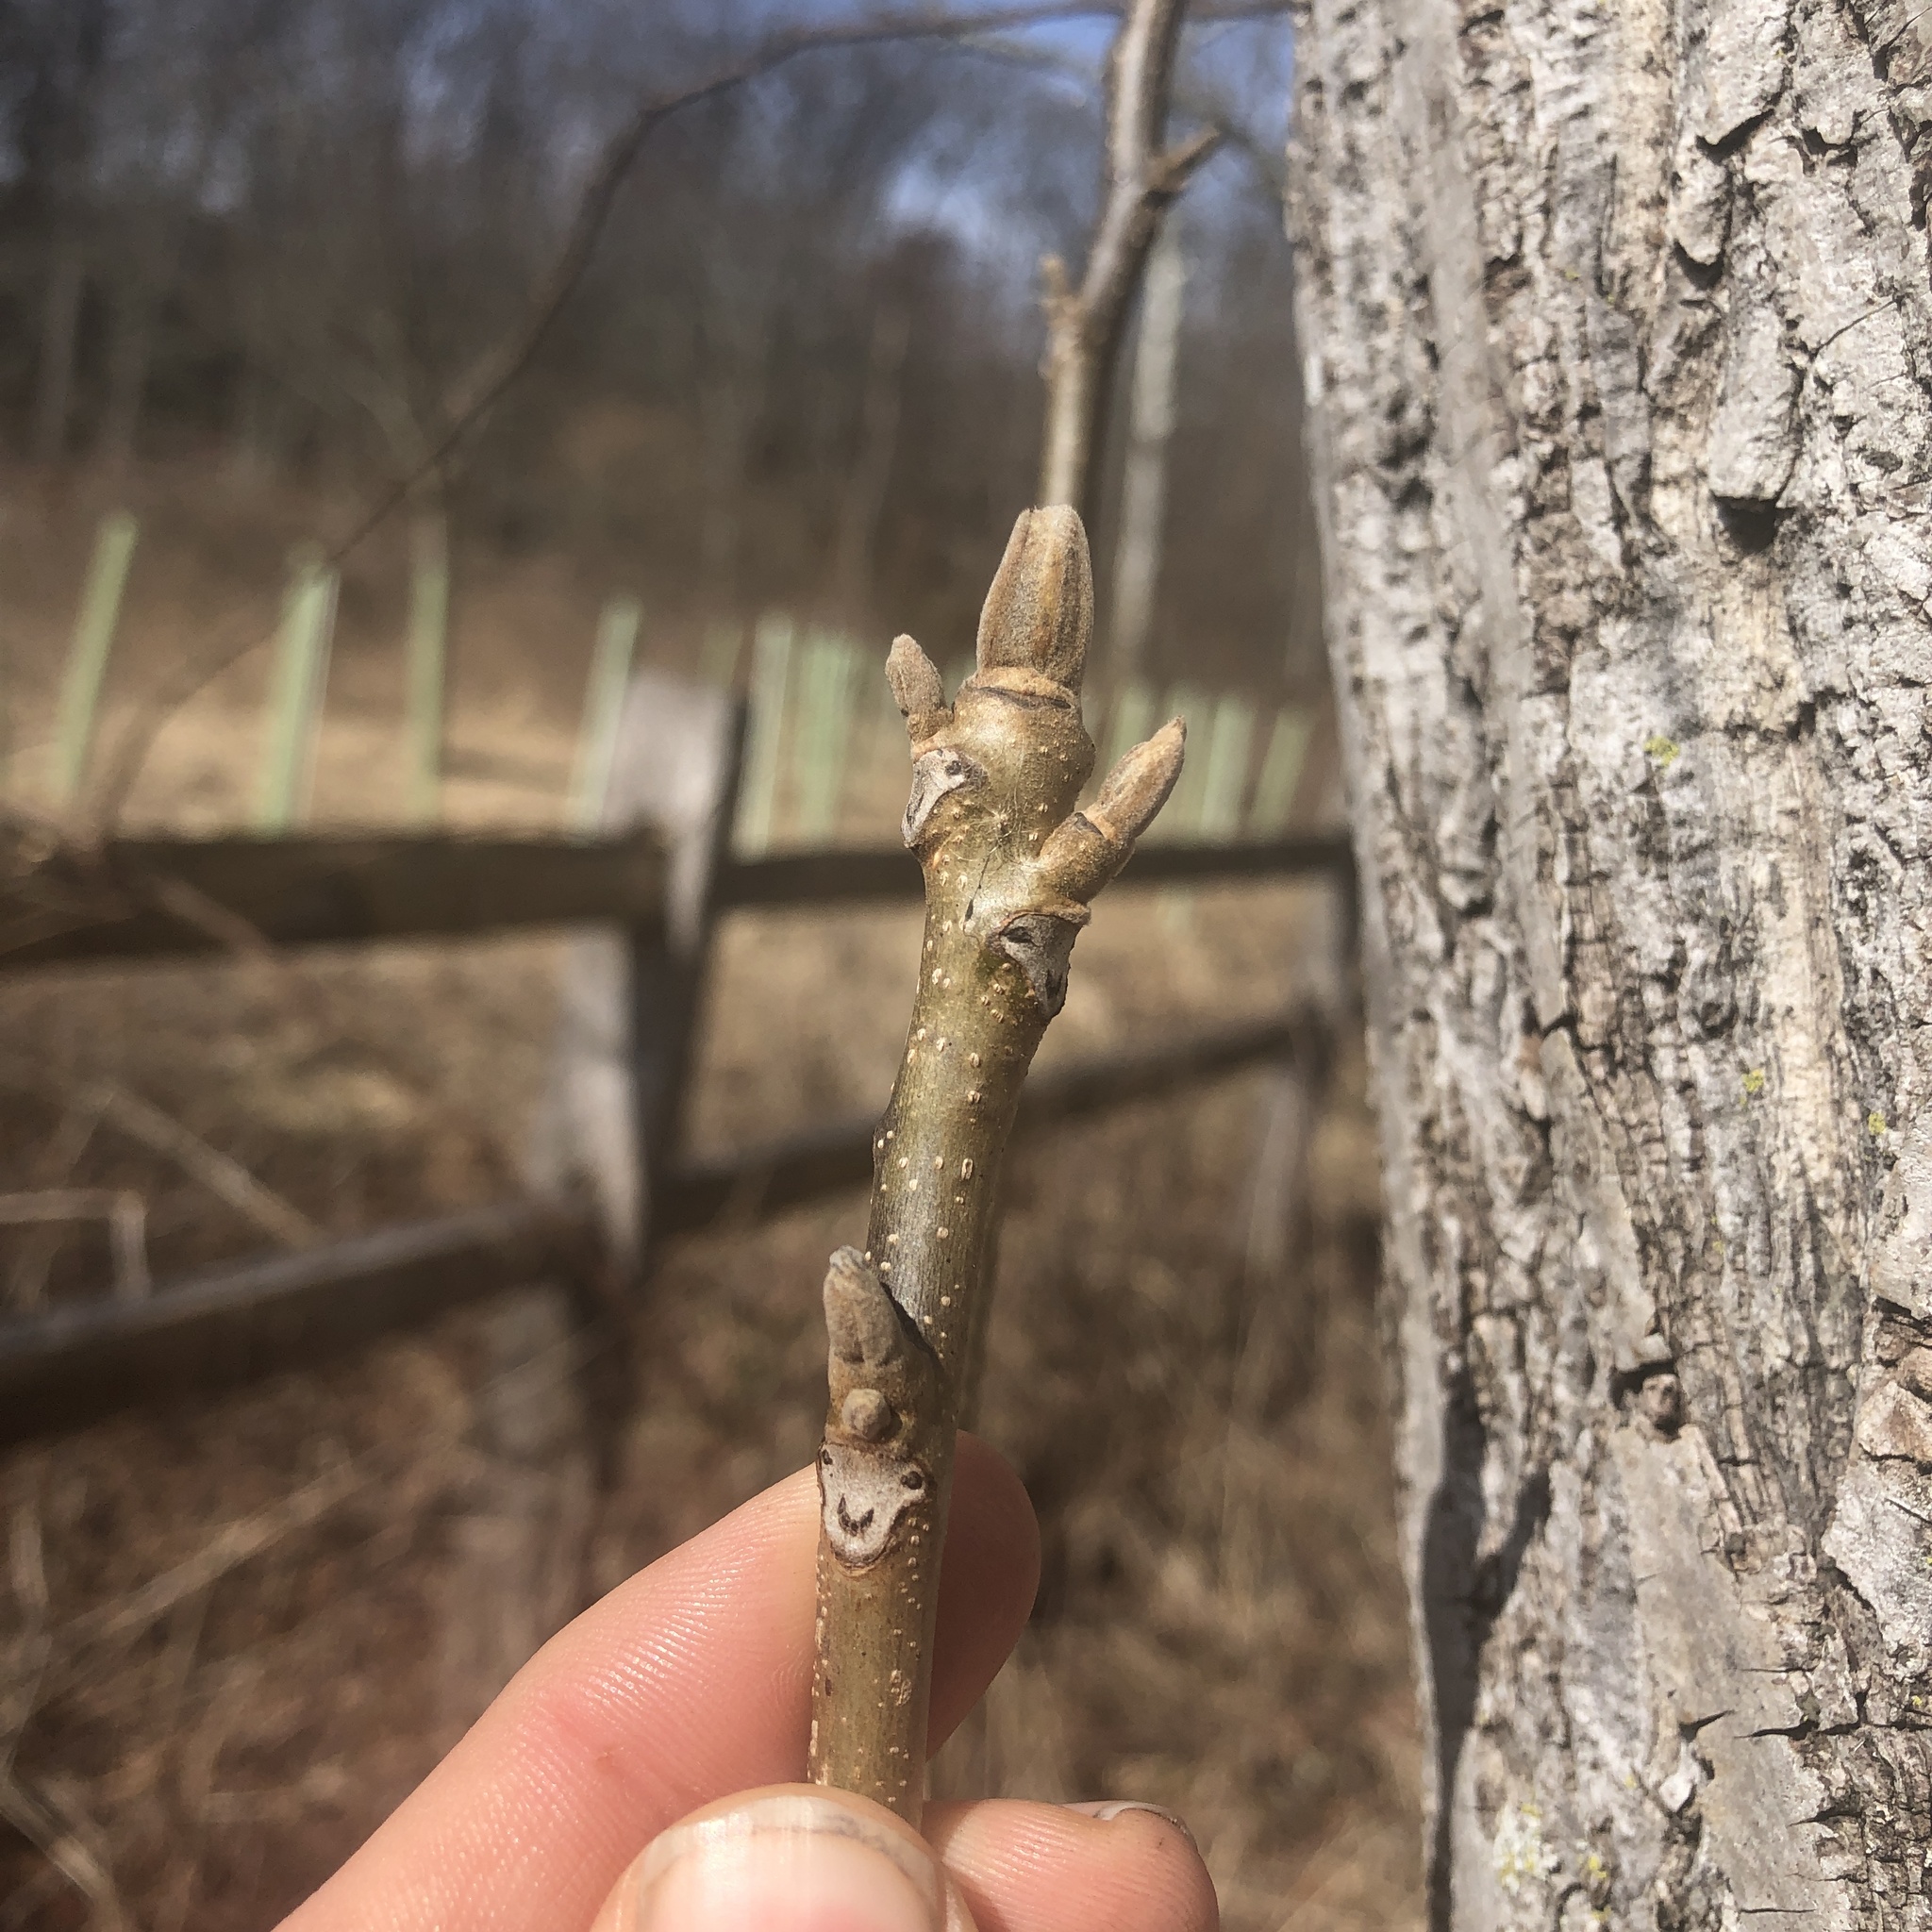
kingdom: Plantae
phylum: Tracheophyta
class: Magnoliopsida
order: Fagales
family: Juglandaceae
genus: Juglans
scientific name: Juglans cinerea
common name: Butternut
